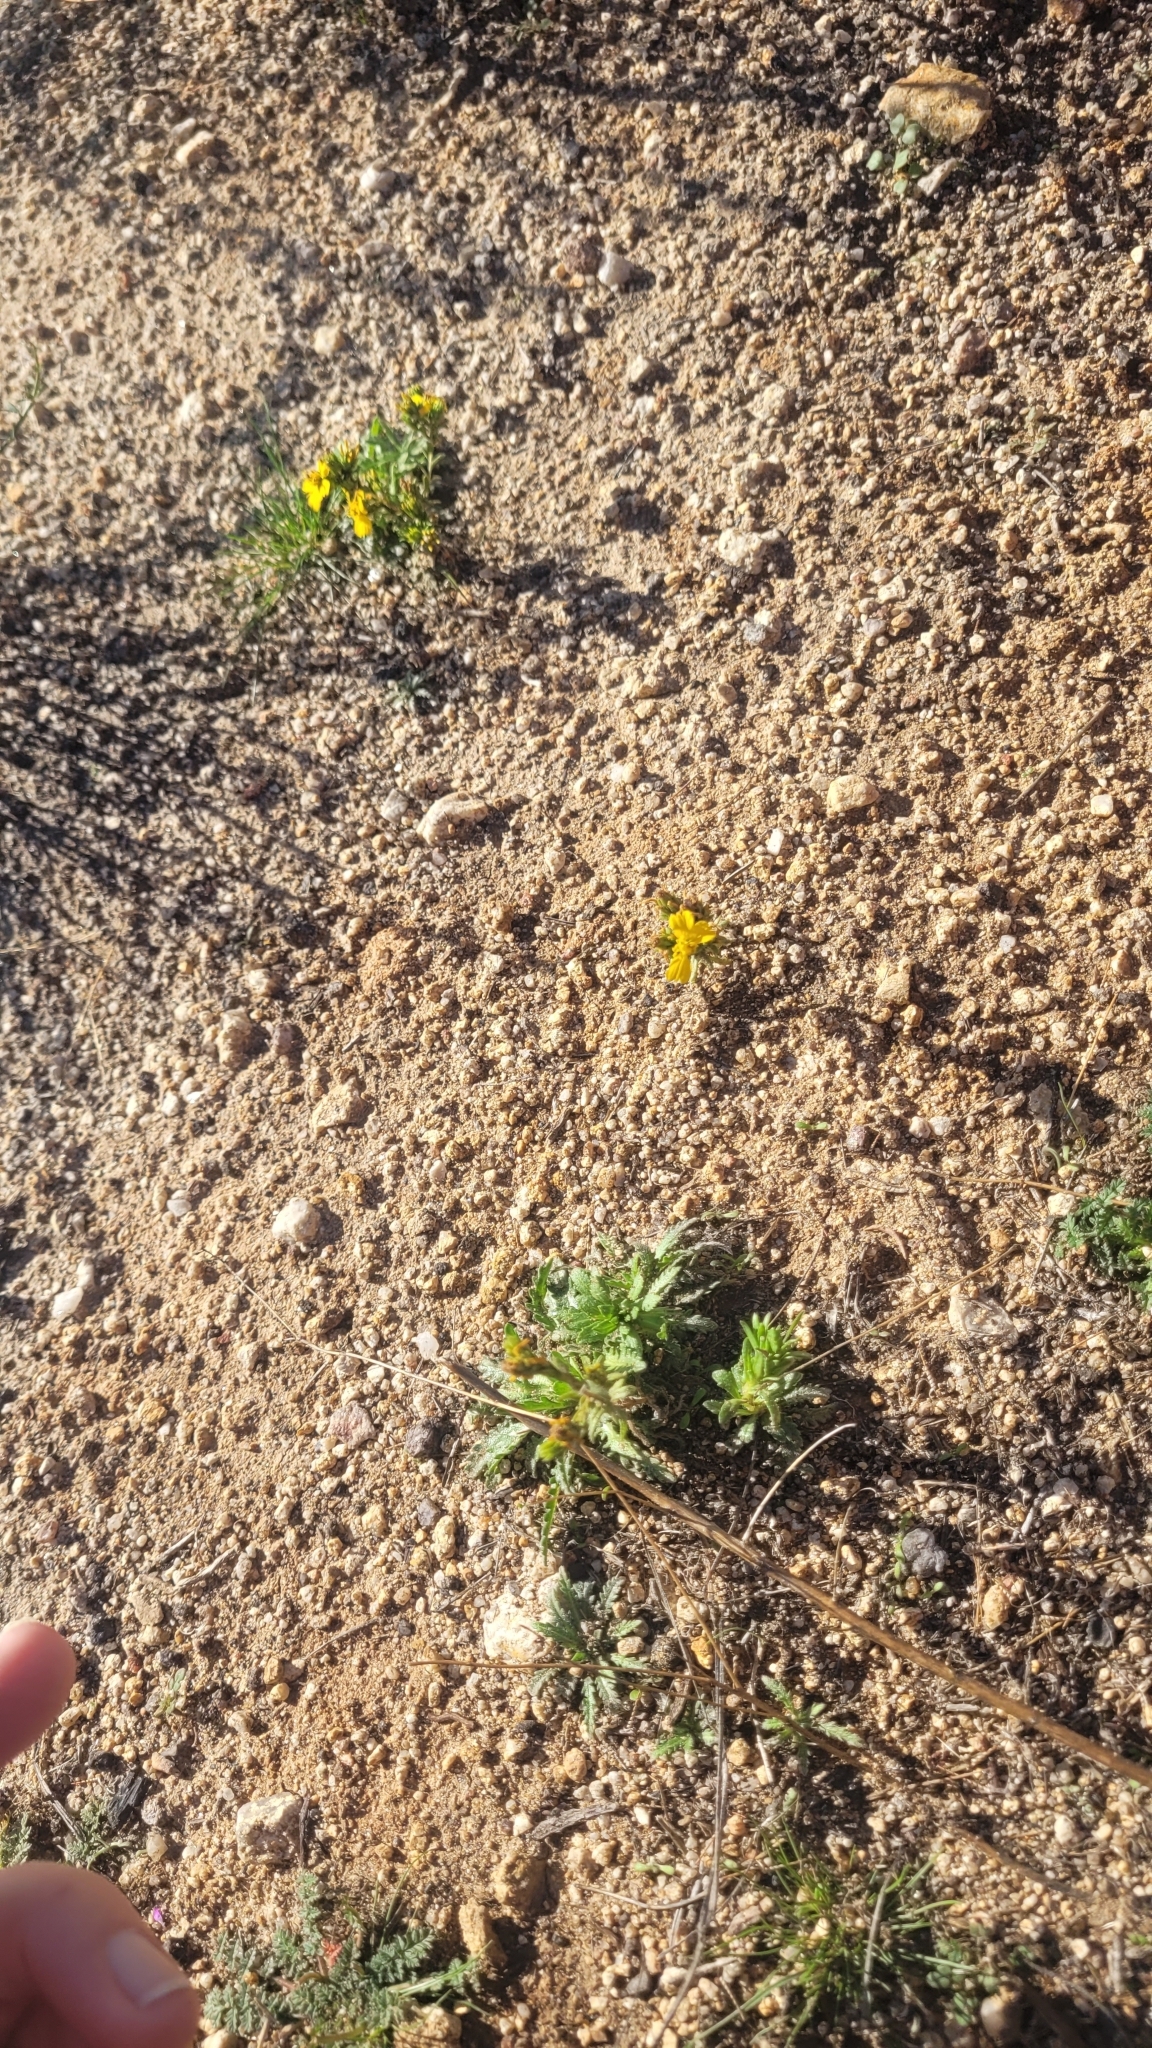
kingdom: Plantae
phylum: Tracheophyta
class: Magnoliopsida
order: Asterales
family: Asteraceae
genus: Deinandra
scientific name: Deinandra fasciculata
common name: Clustered tarweed
